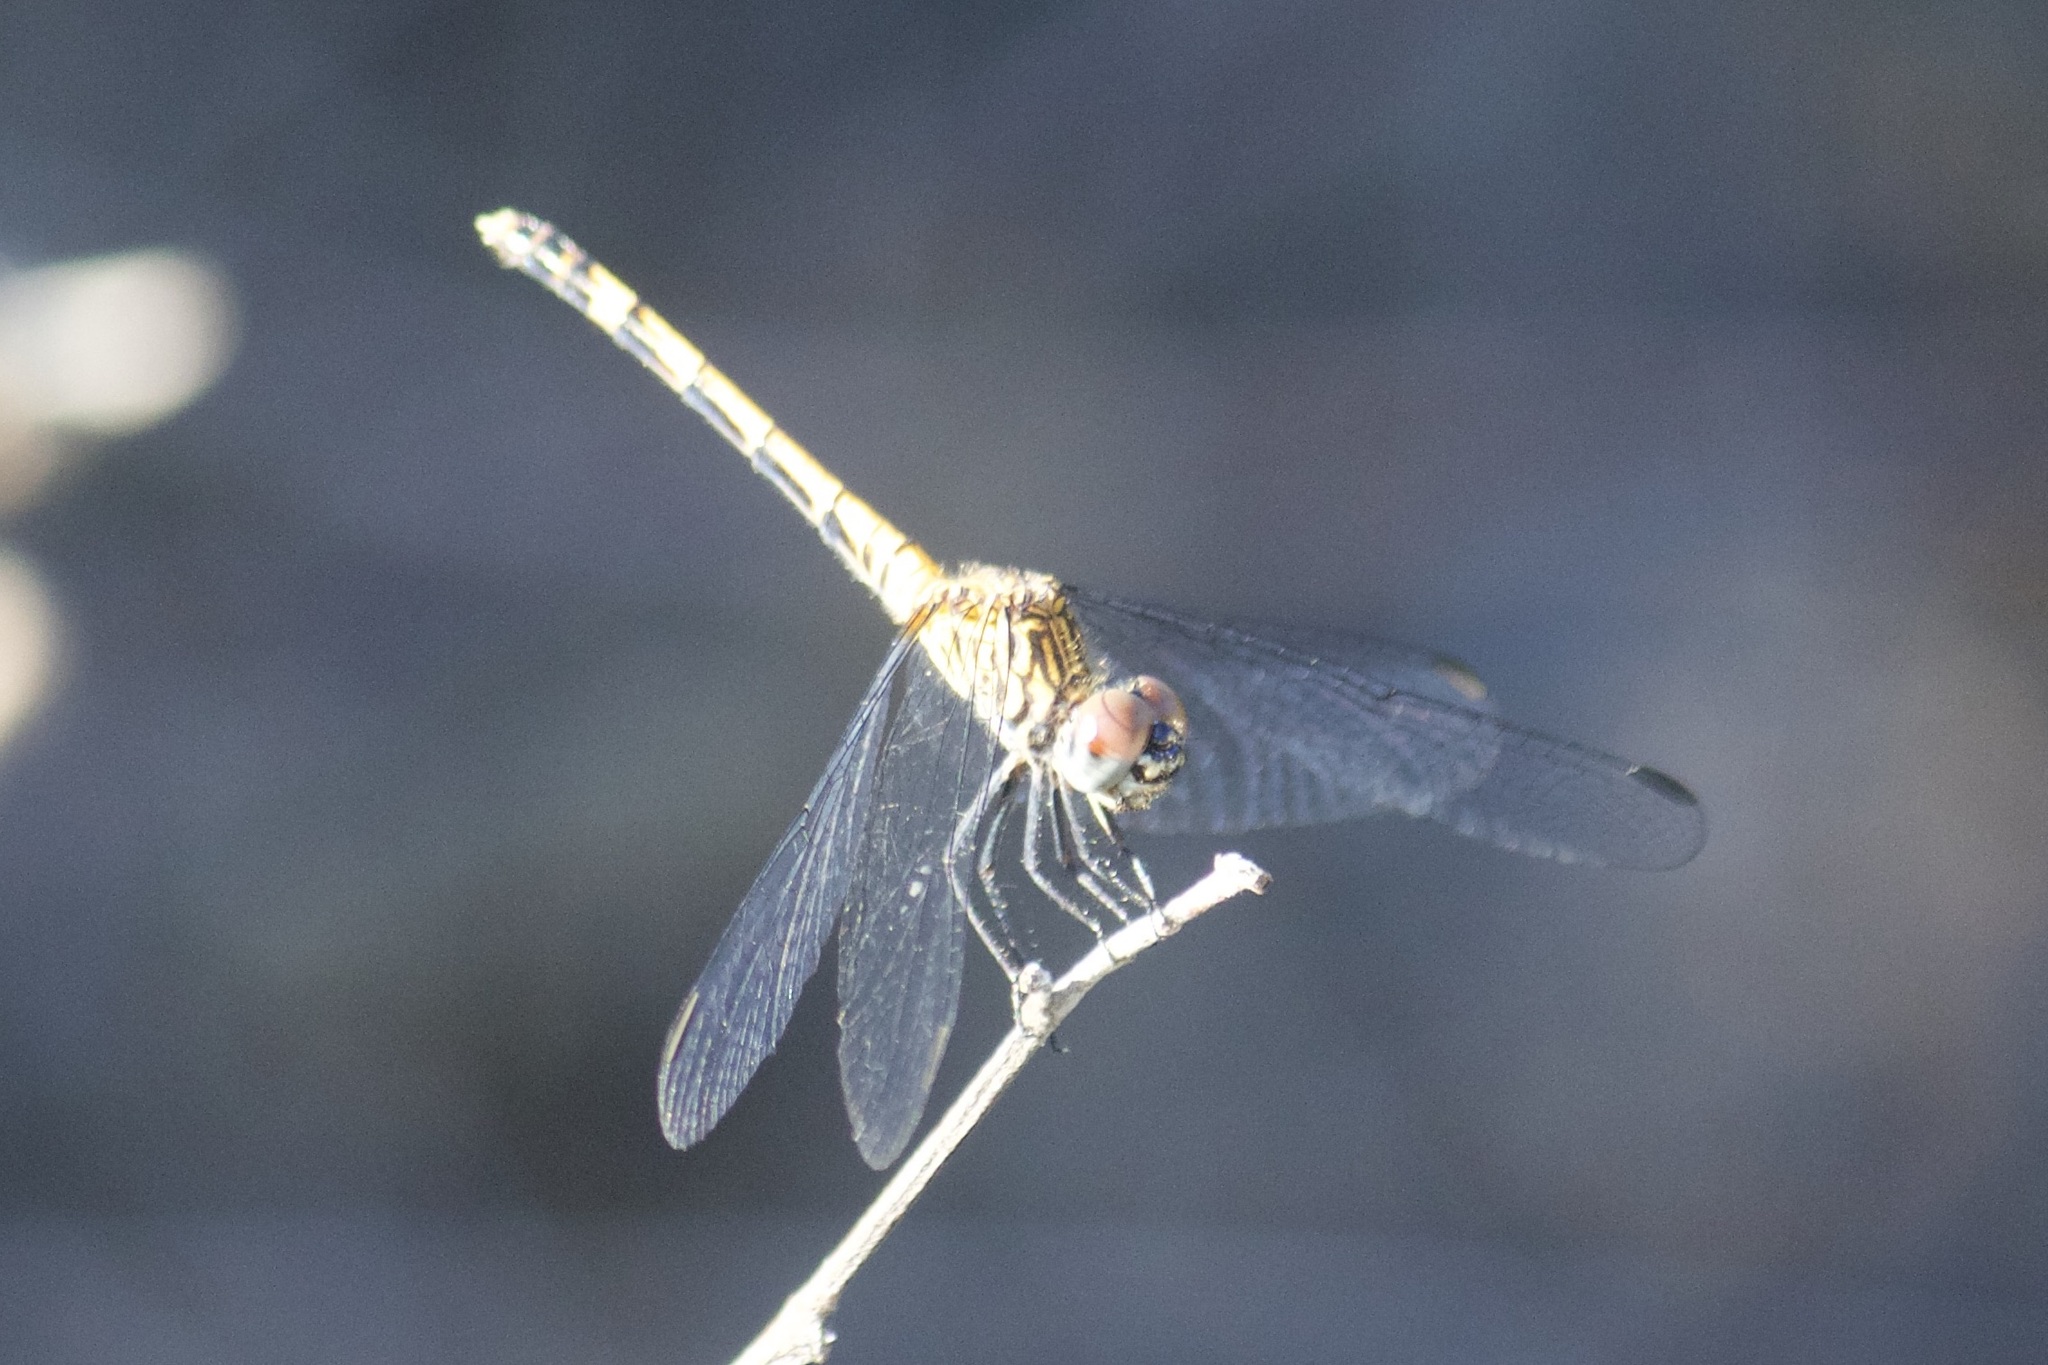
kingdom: Animalia
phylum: Arthropoda
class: Insecta
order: Odonata
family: Libellulidae
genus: Erythrodiplax
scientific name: Erythrodiplax berenice
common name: Seaside dragonlet
